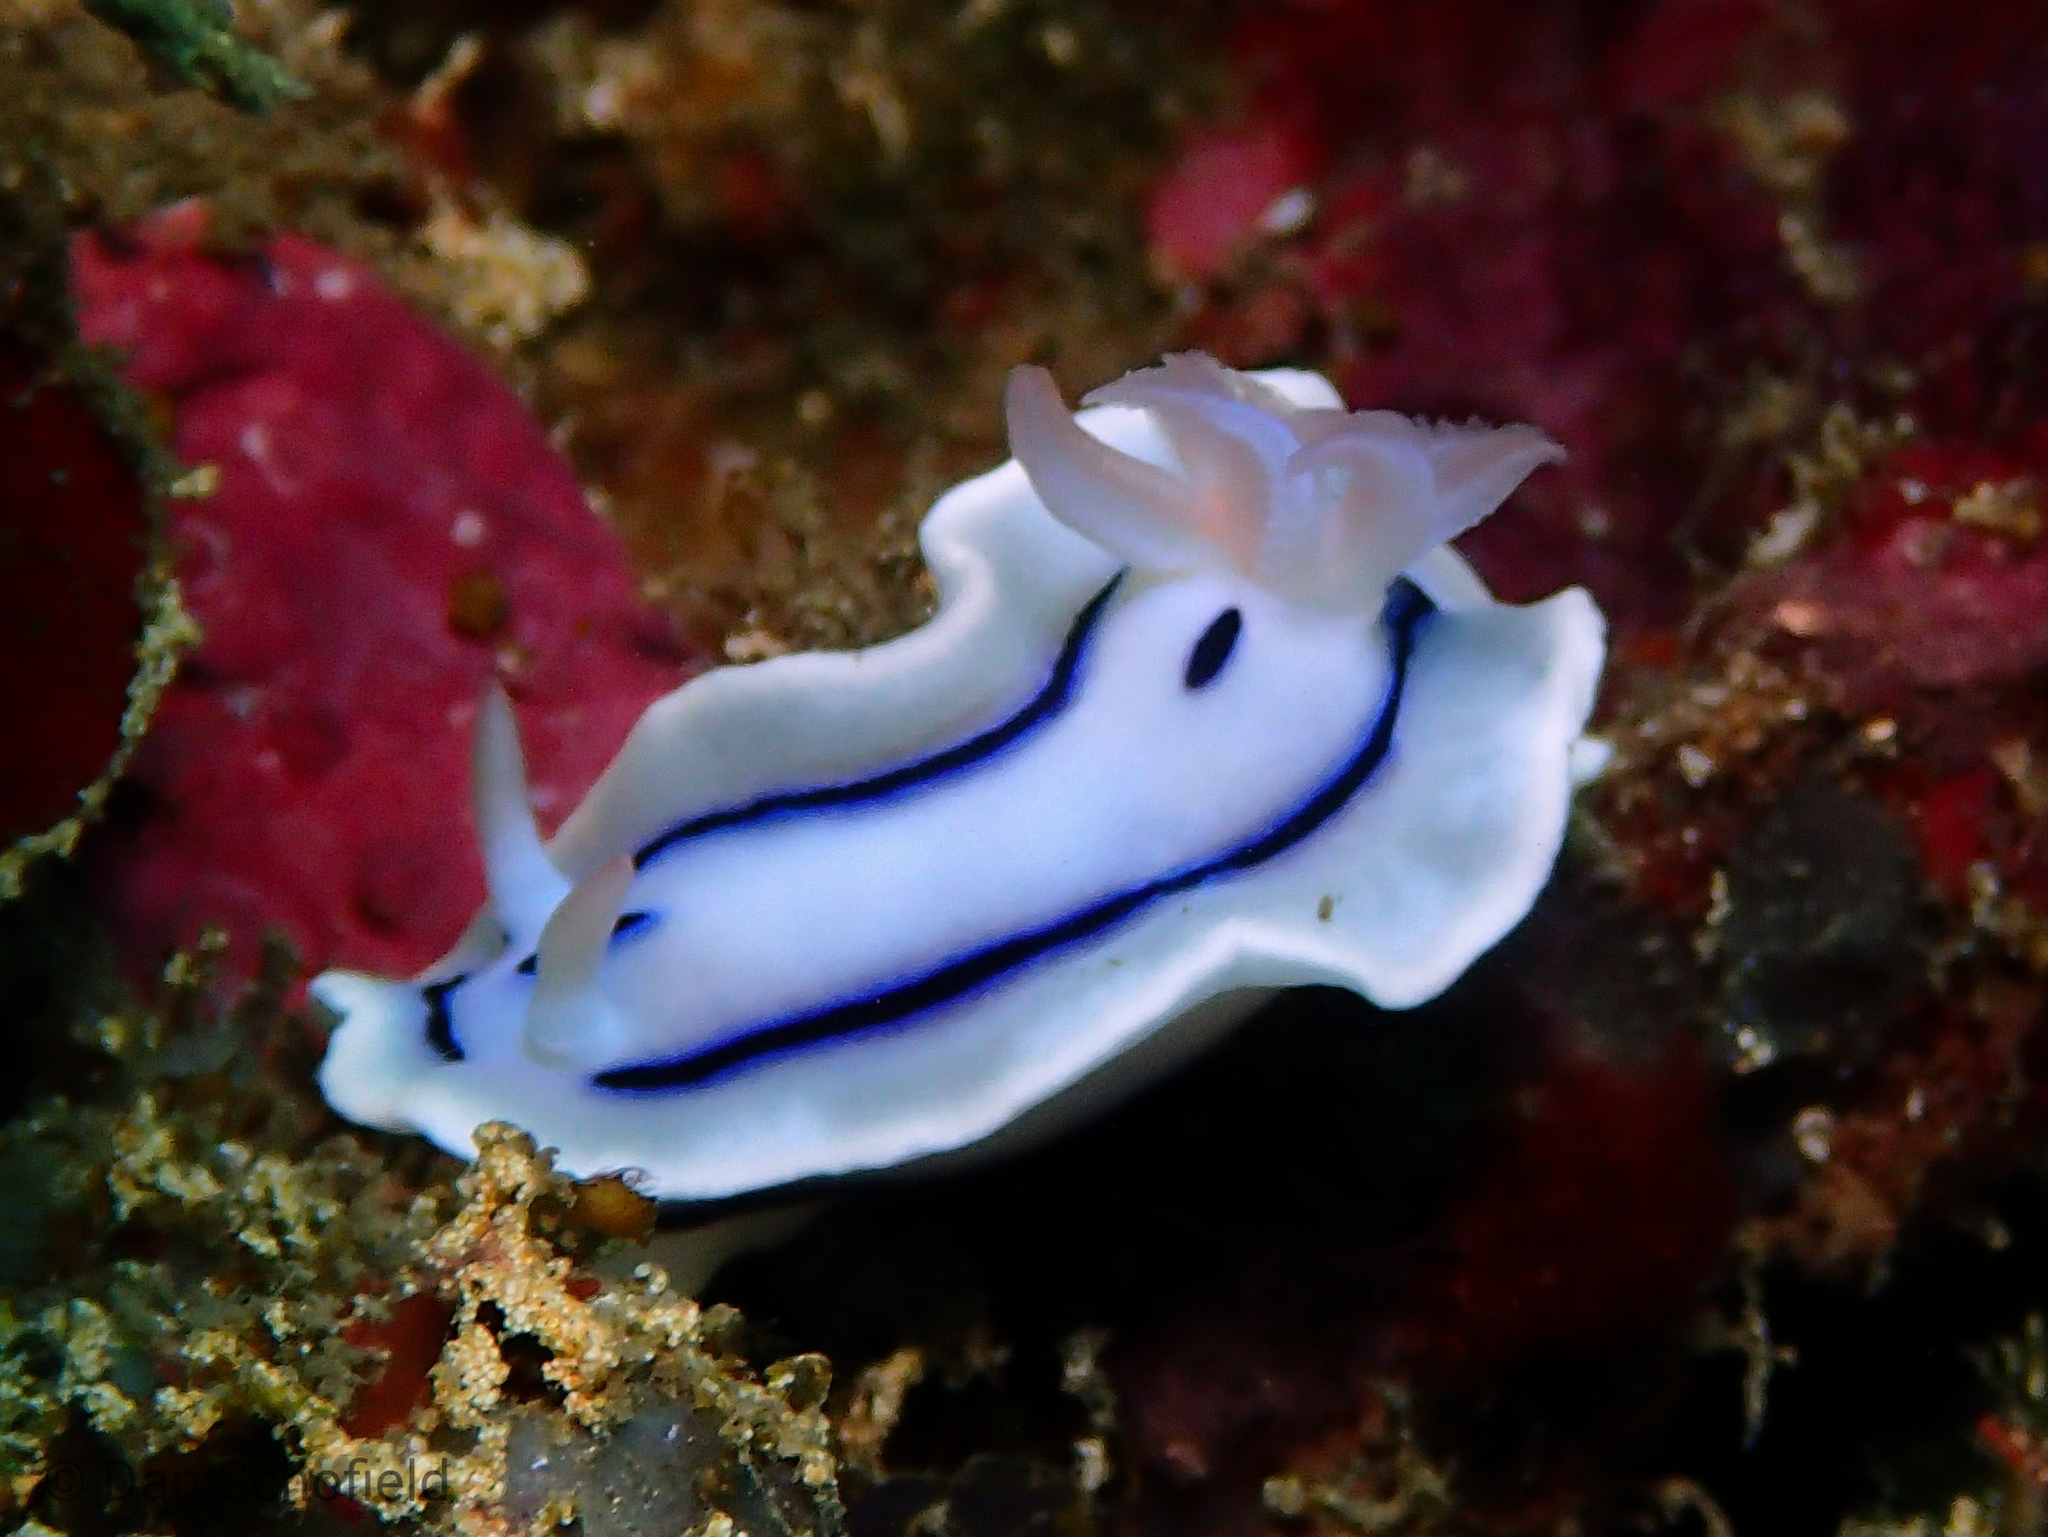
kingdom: Animalia
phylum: Mollusca
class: Gastropoda
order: Nudibranchia
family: Chromodorididae
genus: Chromodoris
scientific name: Chromodoris lochi
